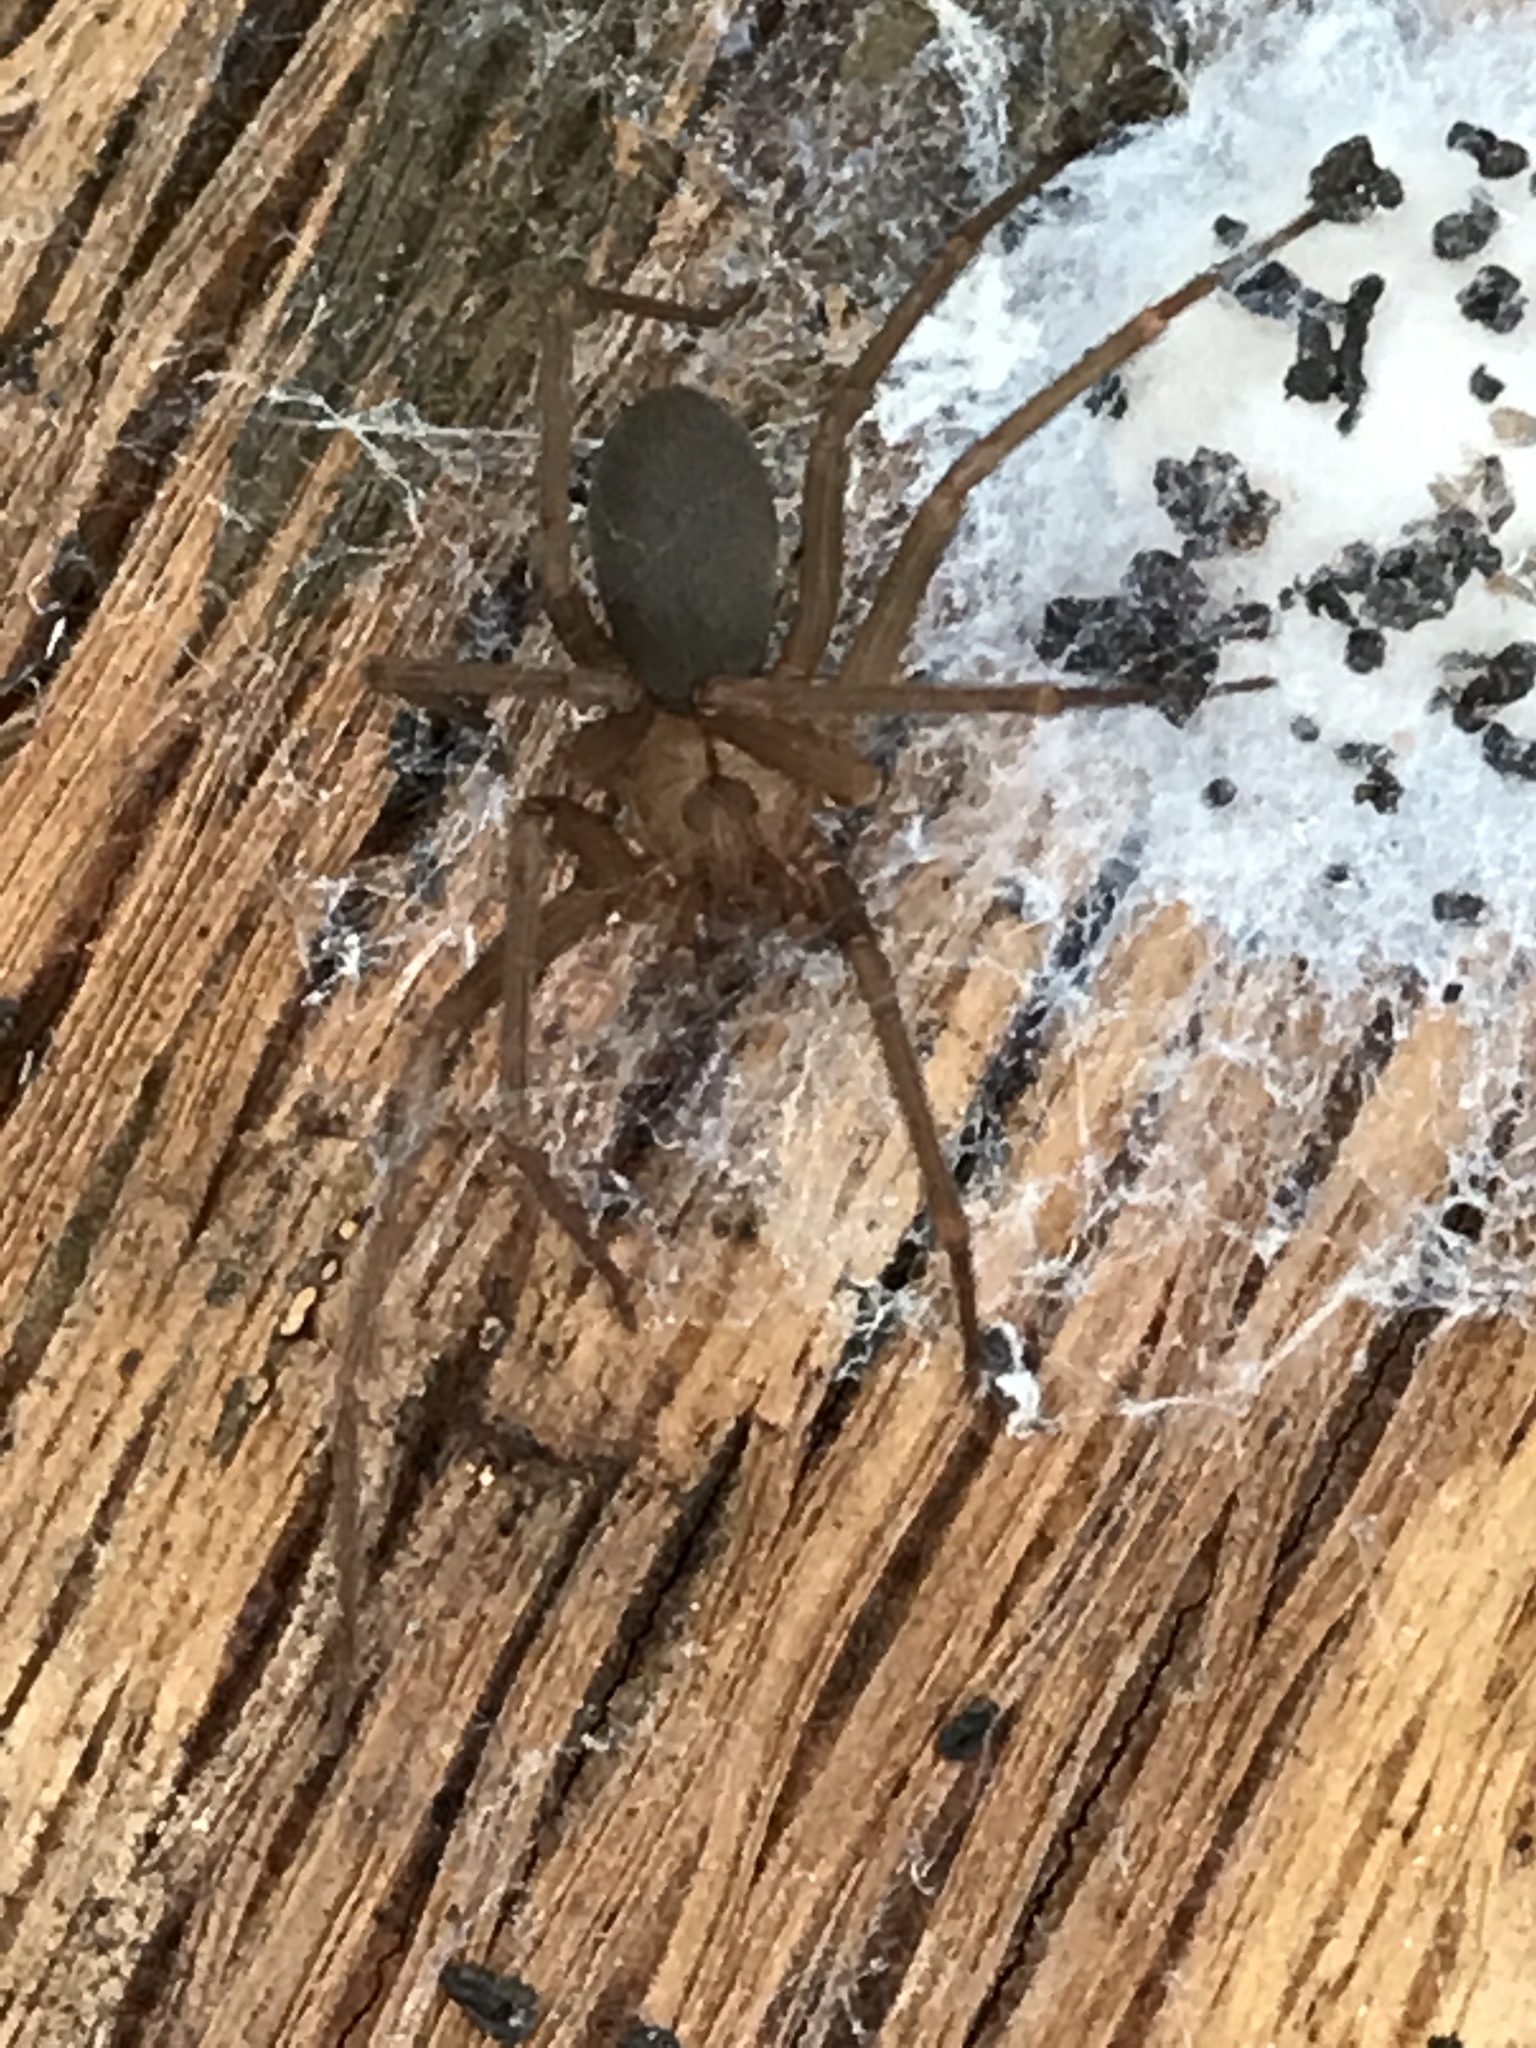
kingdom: Animalia
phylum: Arthropoda
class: Arachnida
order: Araneae
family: Sicariidae
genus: Loxosceles
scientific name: Loxosceles reclusa
